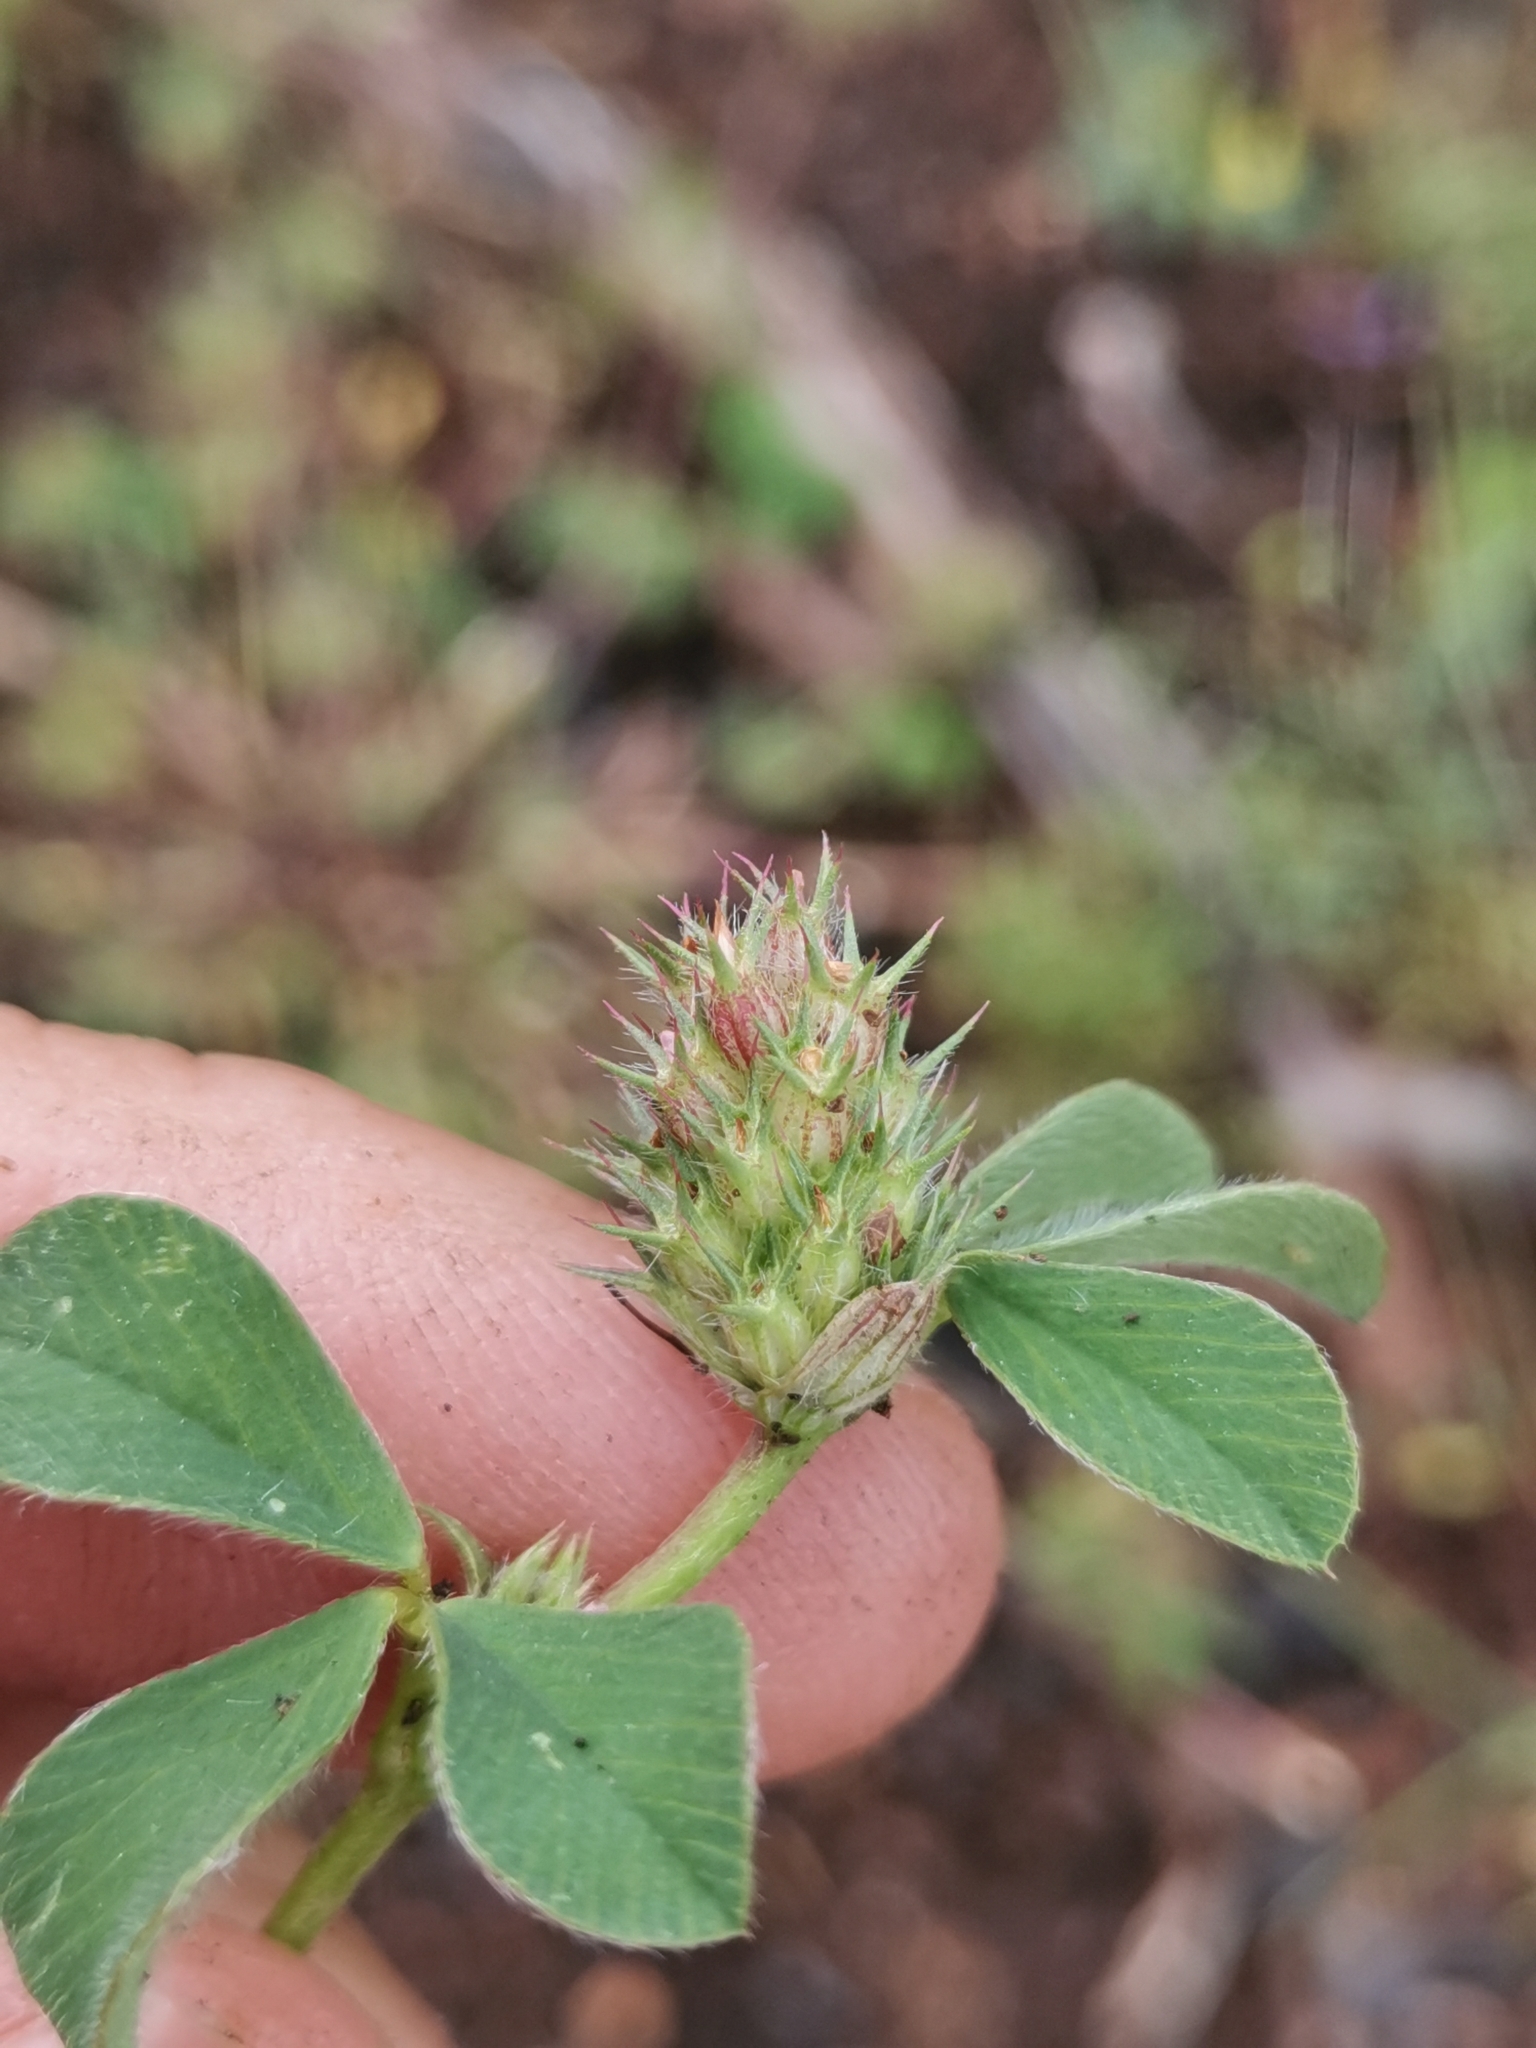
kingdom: Plantae
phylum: Tracheophyta
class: Magnoliopsida
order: Fabales
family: Fabaceae
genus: Trifolium
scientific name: Trifolium striatum
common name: Knotted clover
